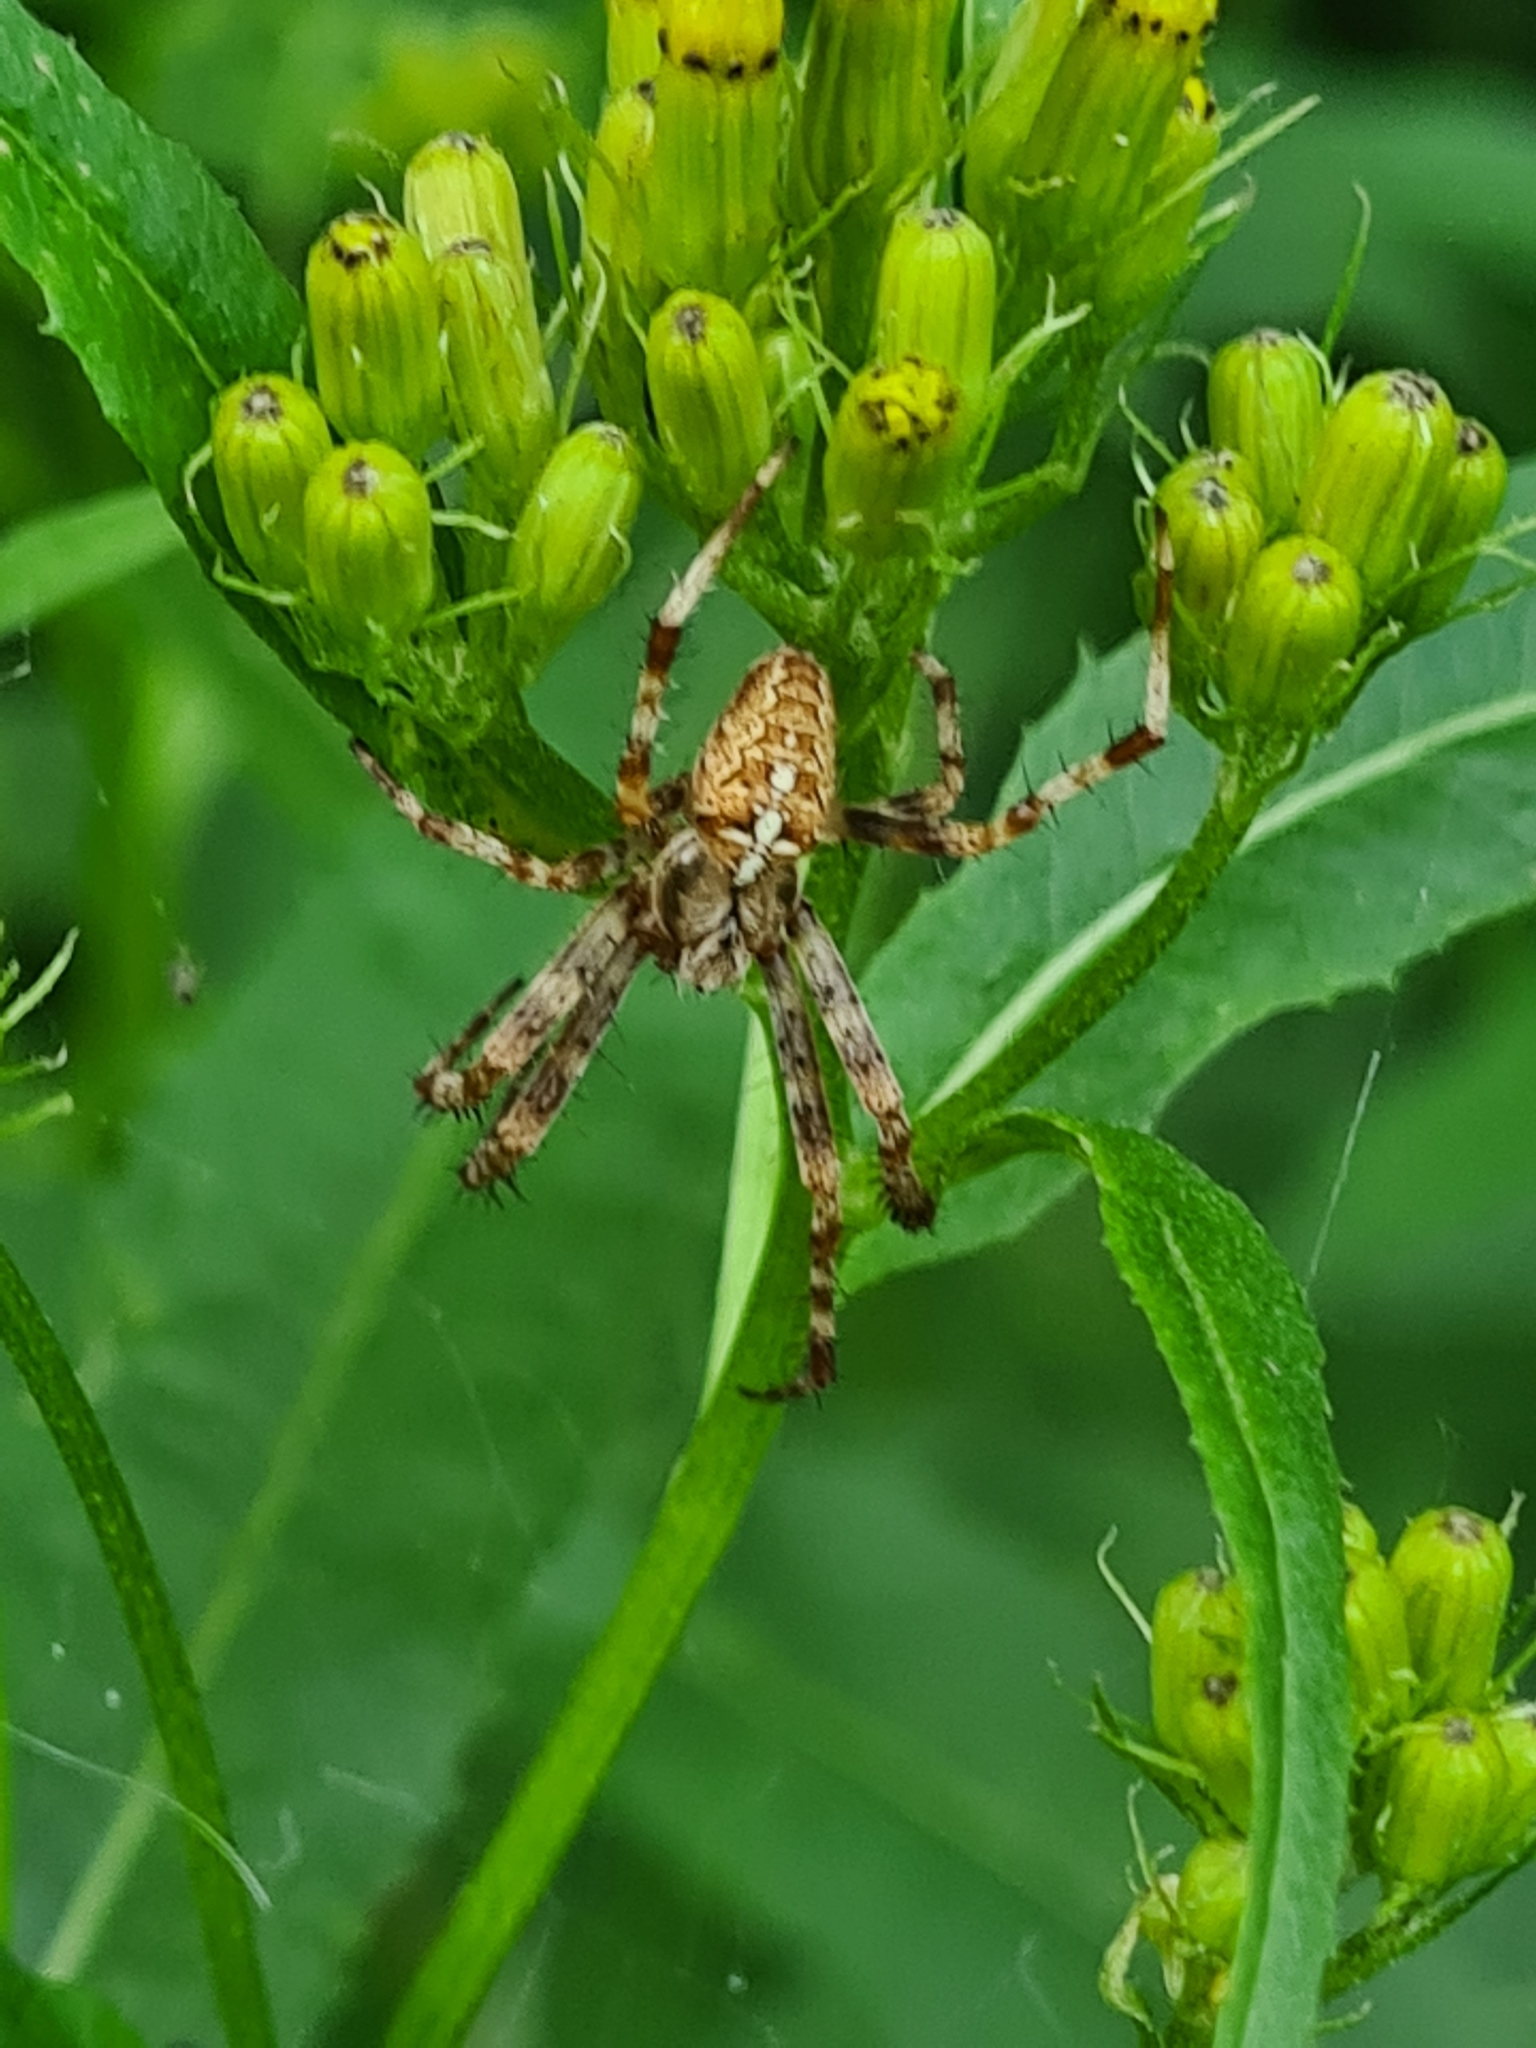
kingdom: Animalia
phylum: Arthropoda
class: Arachnida
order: Araneae
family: Araneidae
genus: Araneus
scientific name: Araneus diadematus
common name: Cross orbweaver
